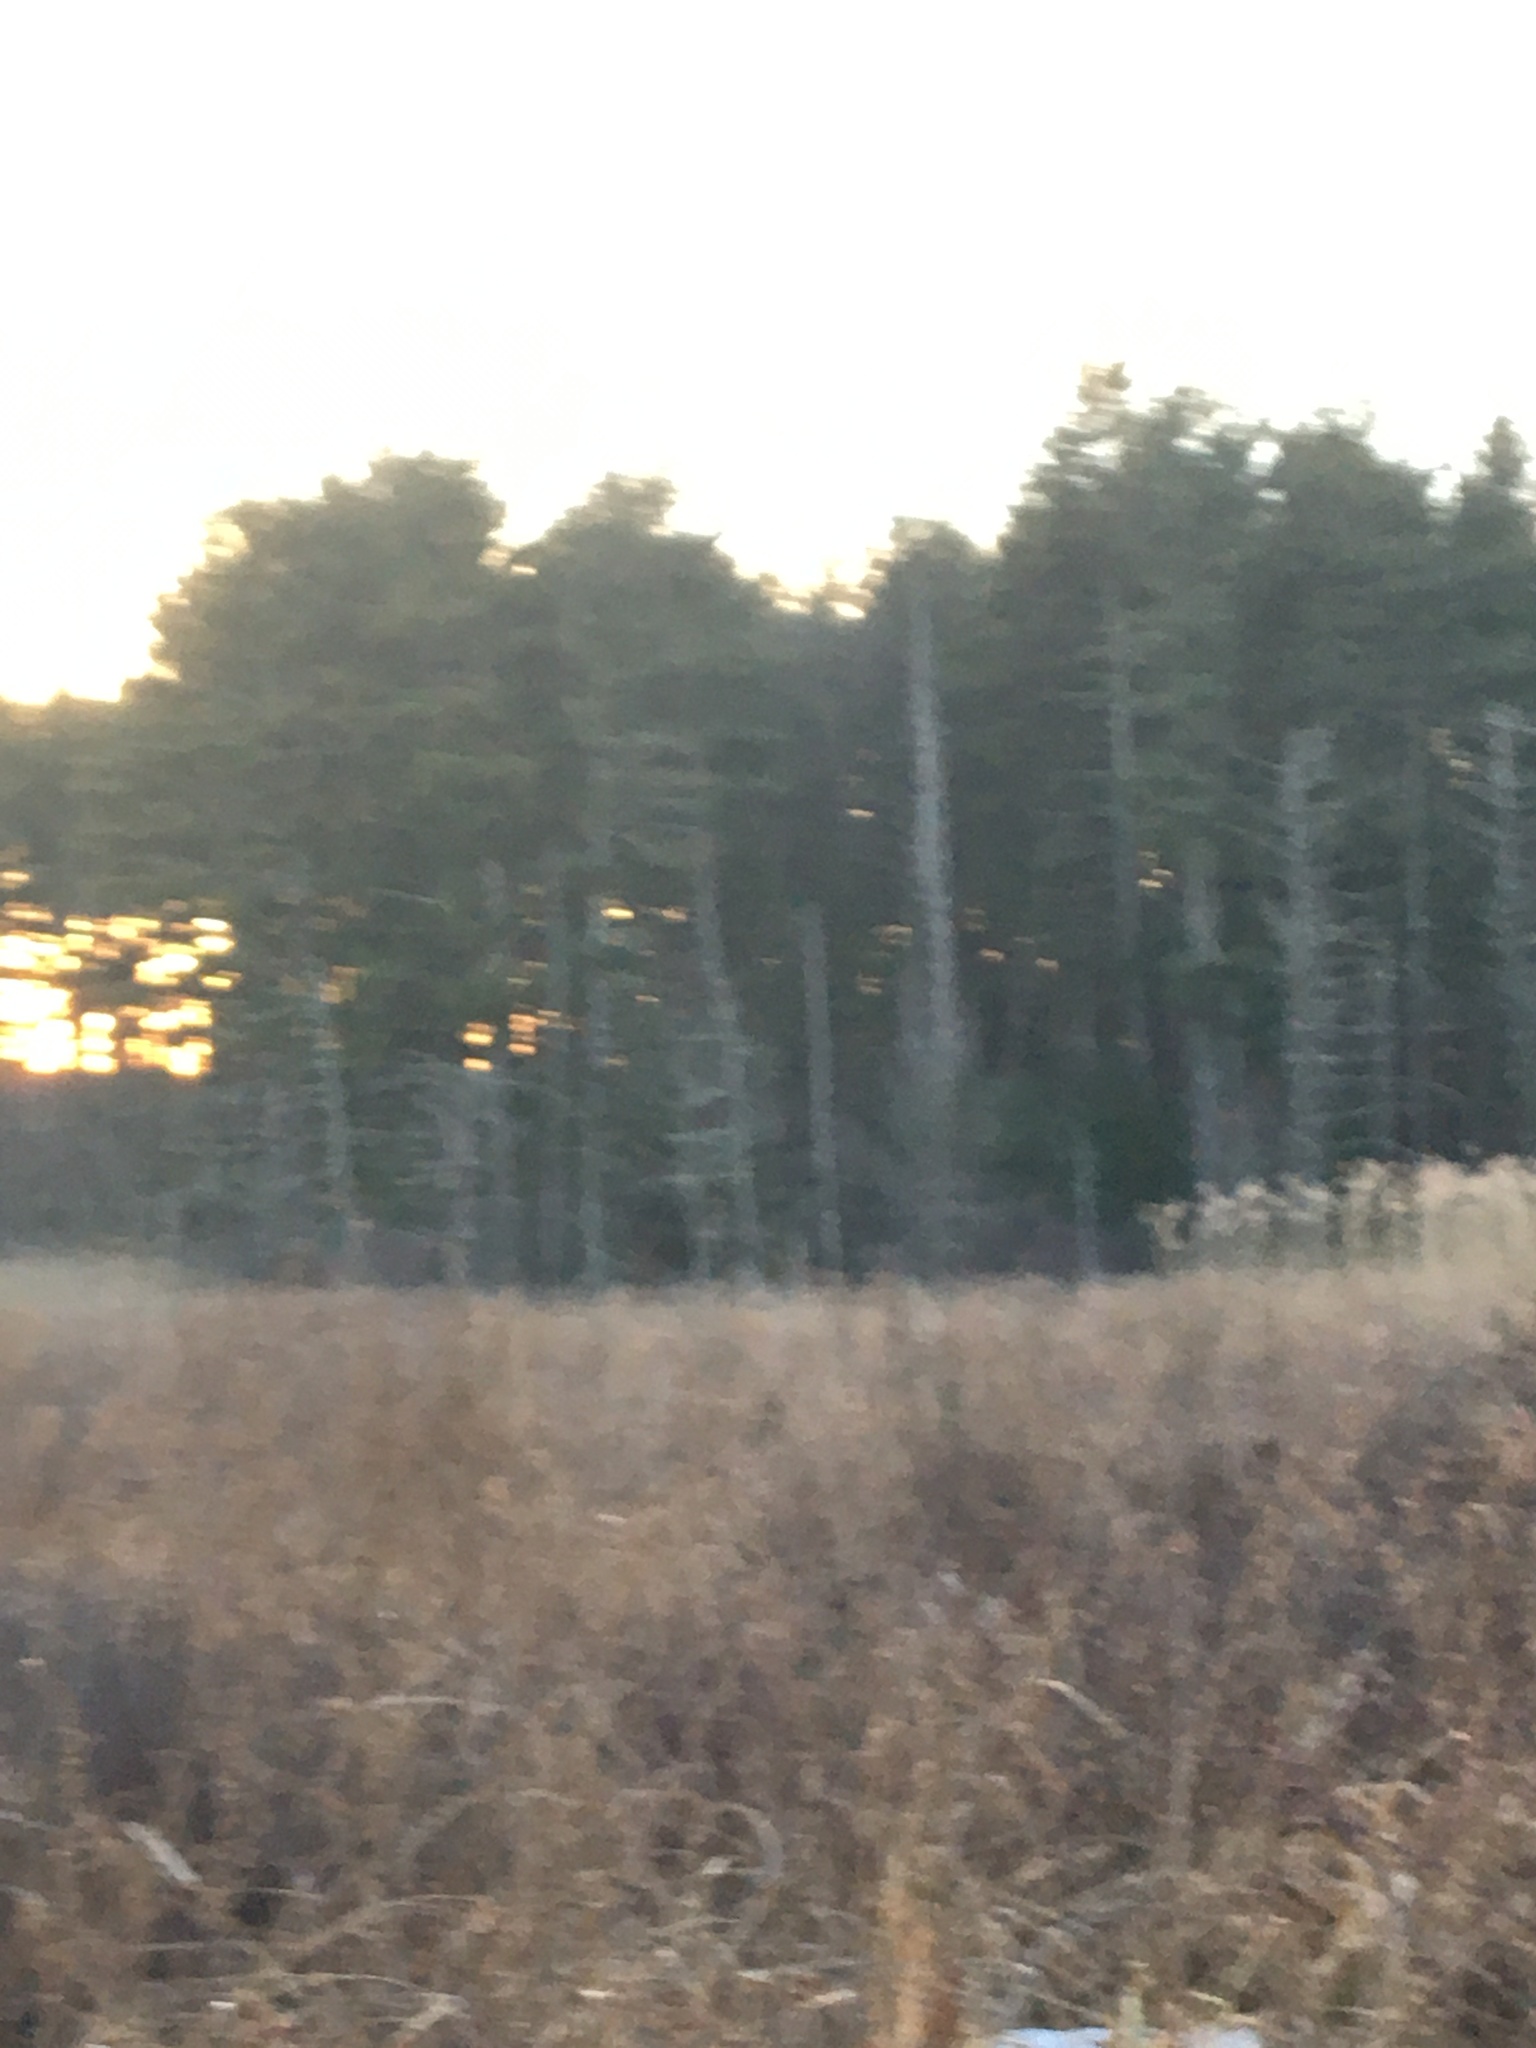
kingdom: Plantae
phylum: Tracheophyta
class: Liliopsida
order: Poales
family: Poaceae
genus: Phragmites
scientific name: Phragmites australis
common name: Common reed
